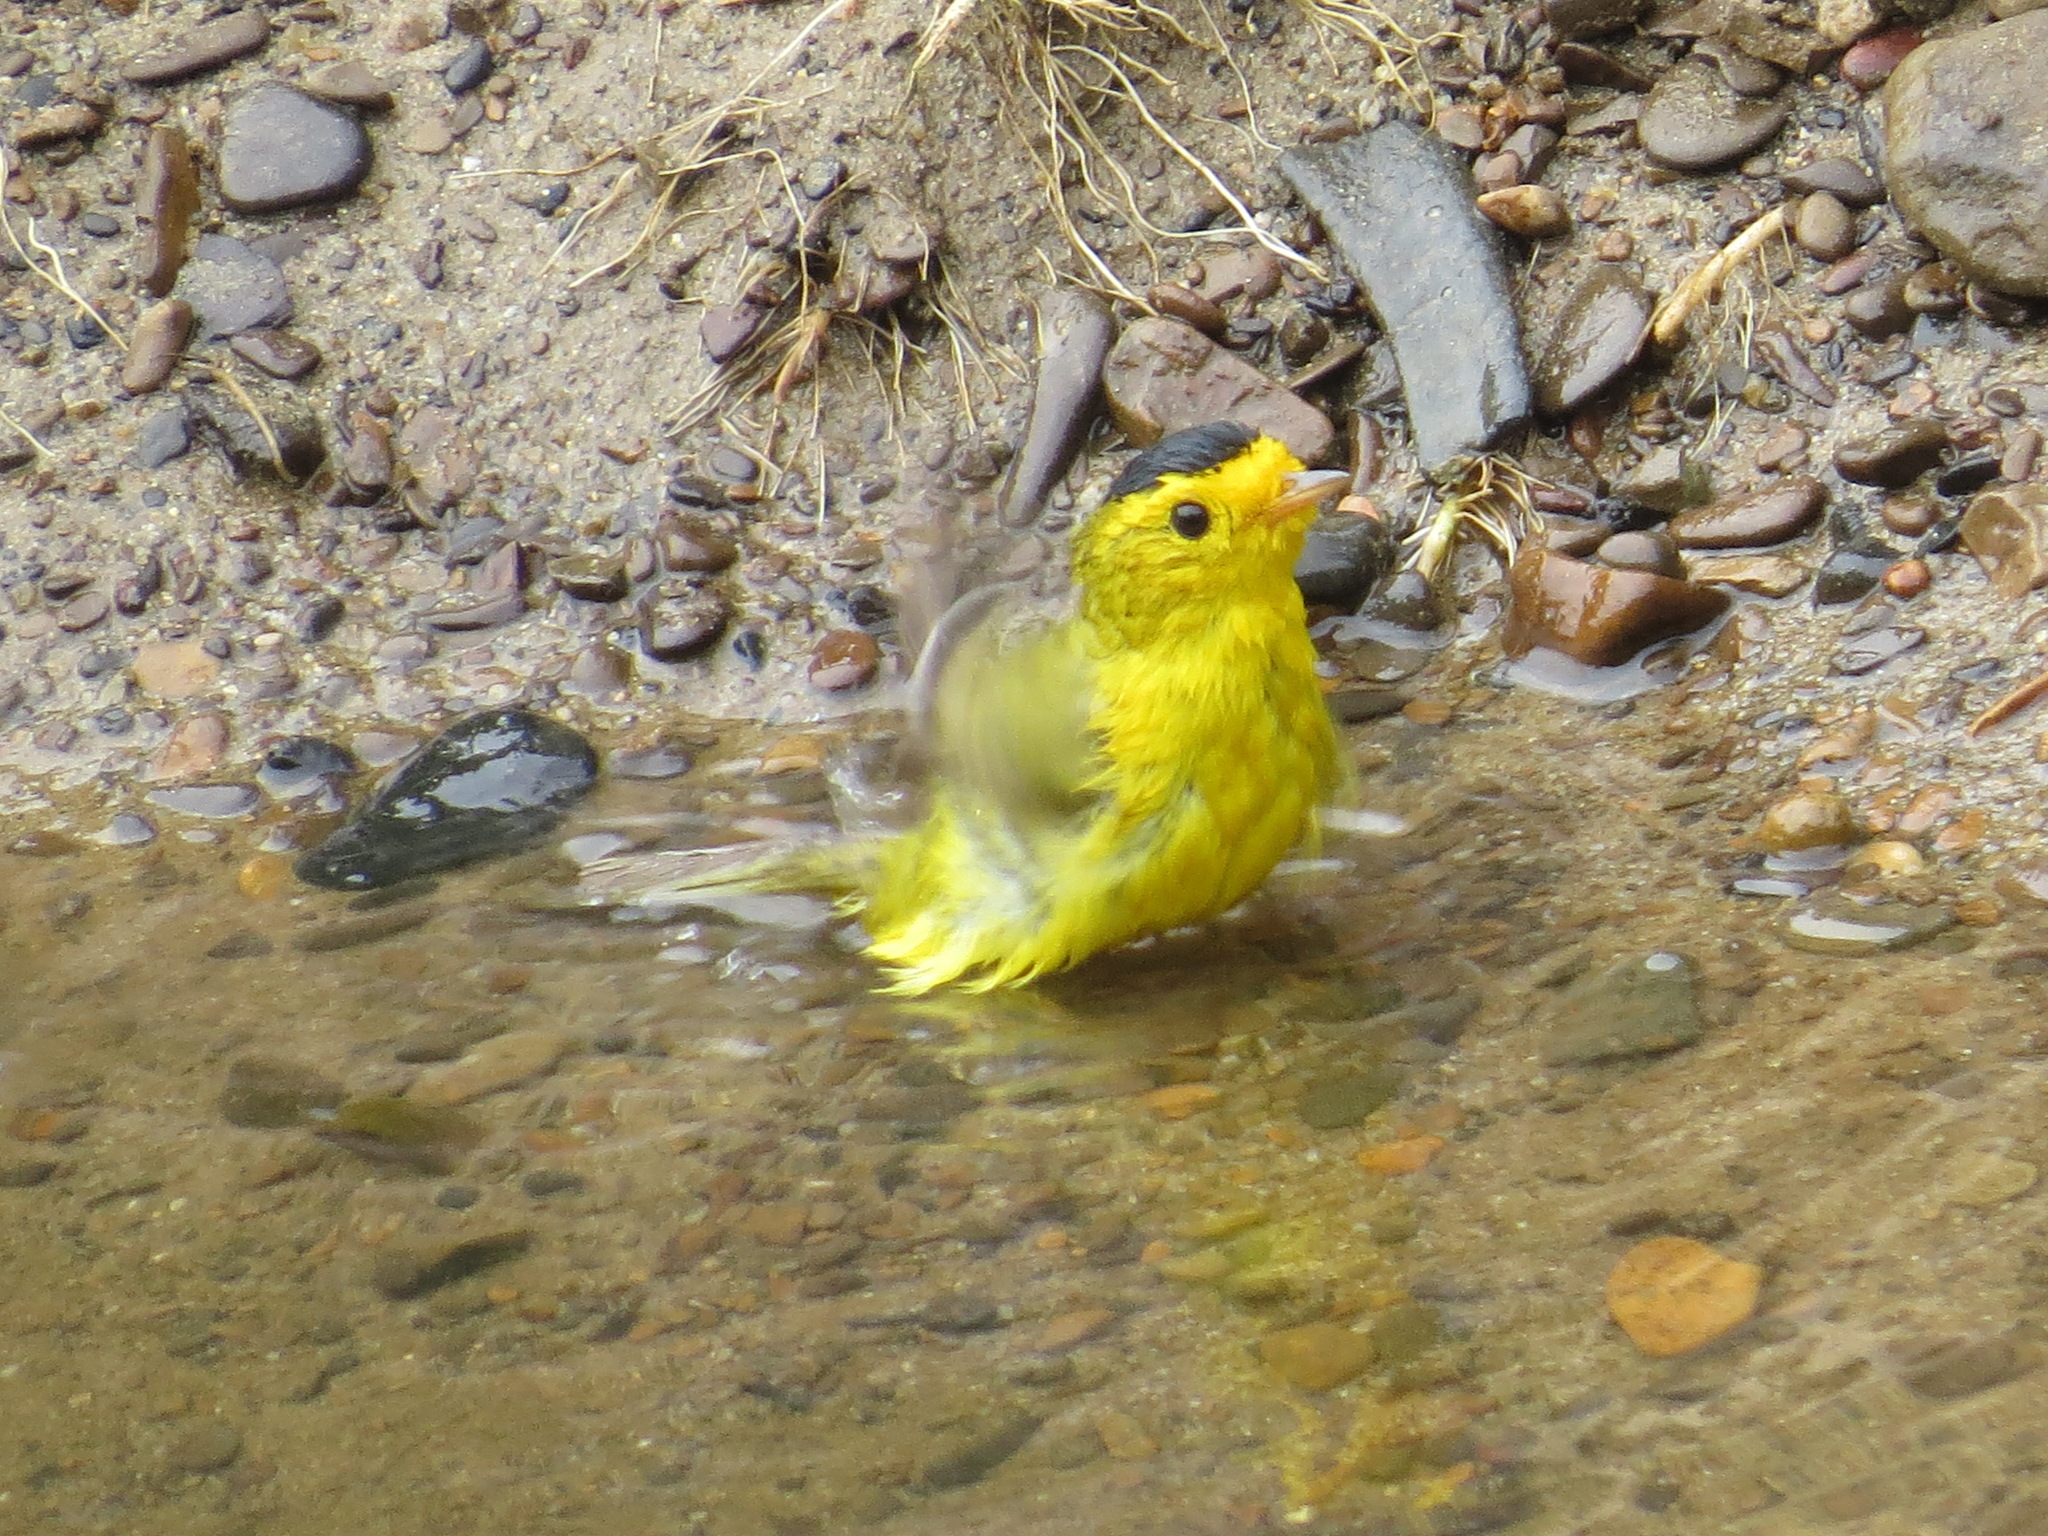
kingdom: Animalia
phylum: Chordata
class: Aves
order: Passeriformes
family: Parulidae
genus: Cardellina
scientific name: Cardellina pusilla
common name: Wilson's warbler
